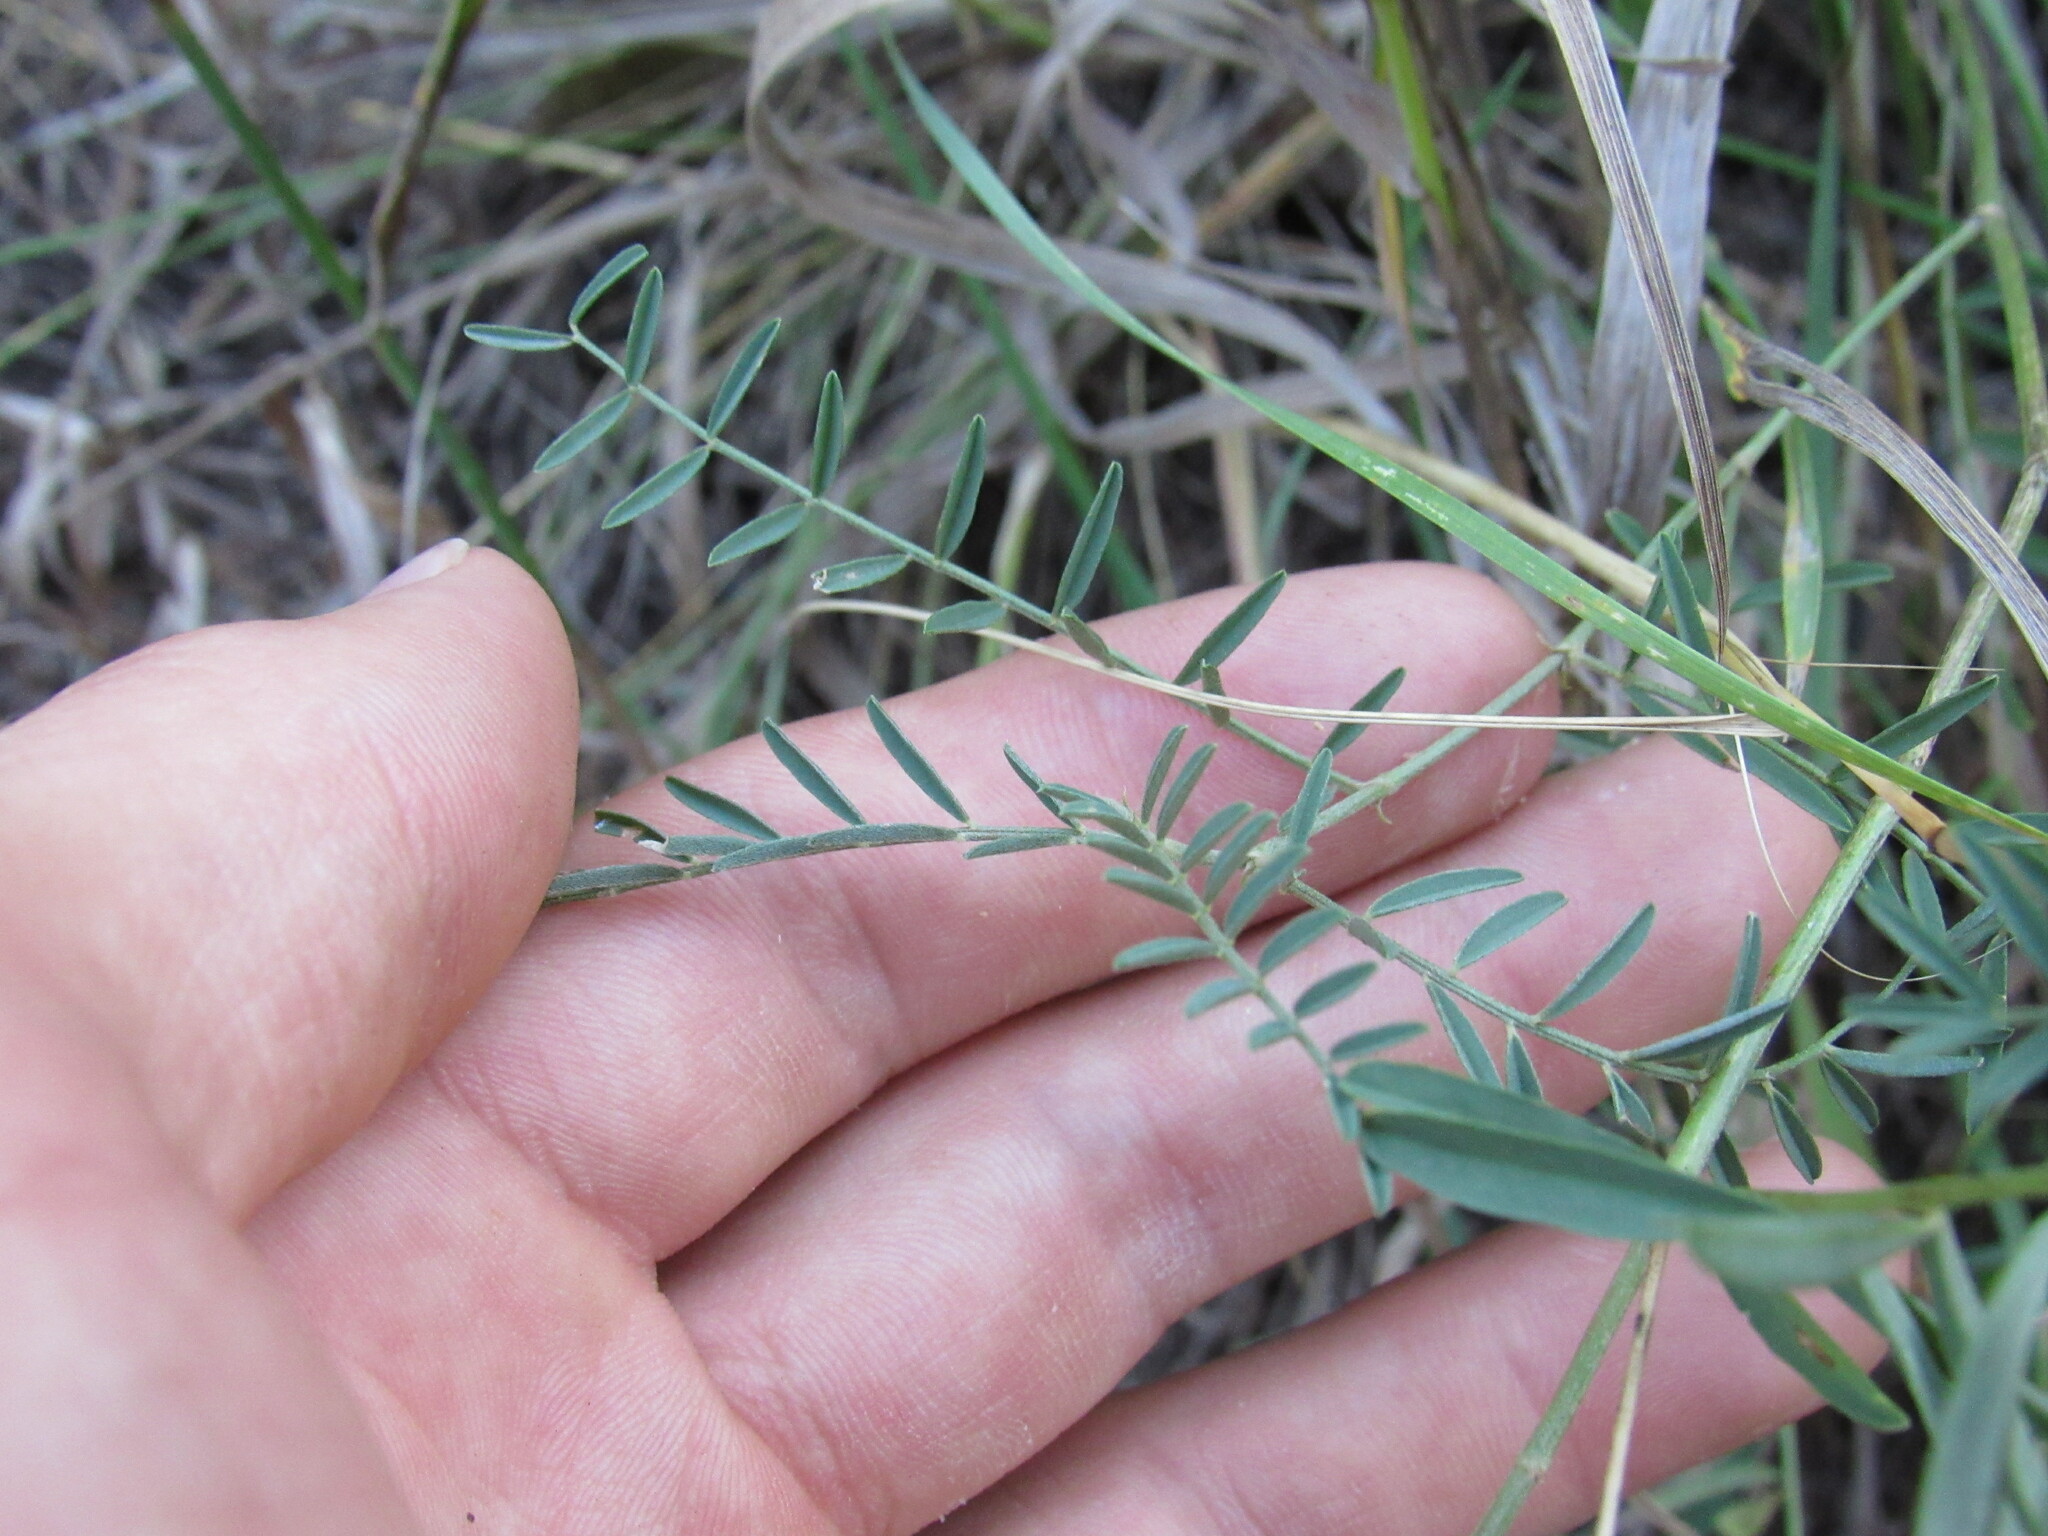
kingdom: Plantae
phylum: Tracheophyta
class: Magnoliopsida
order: Fabales
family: Fabaceae
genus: Astragalus
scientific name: Astragalus flexuosus
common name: Pliant milk-vetch
